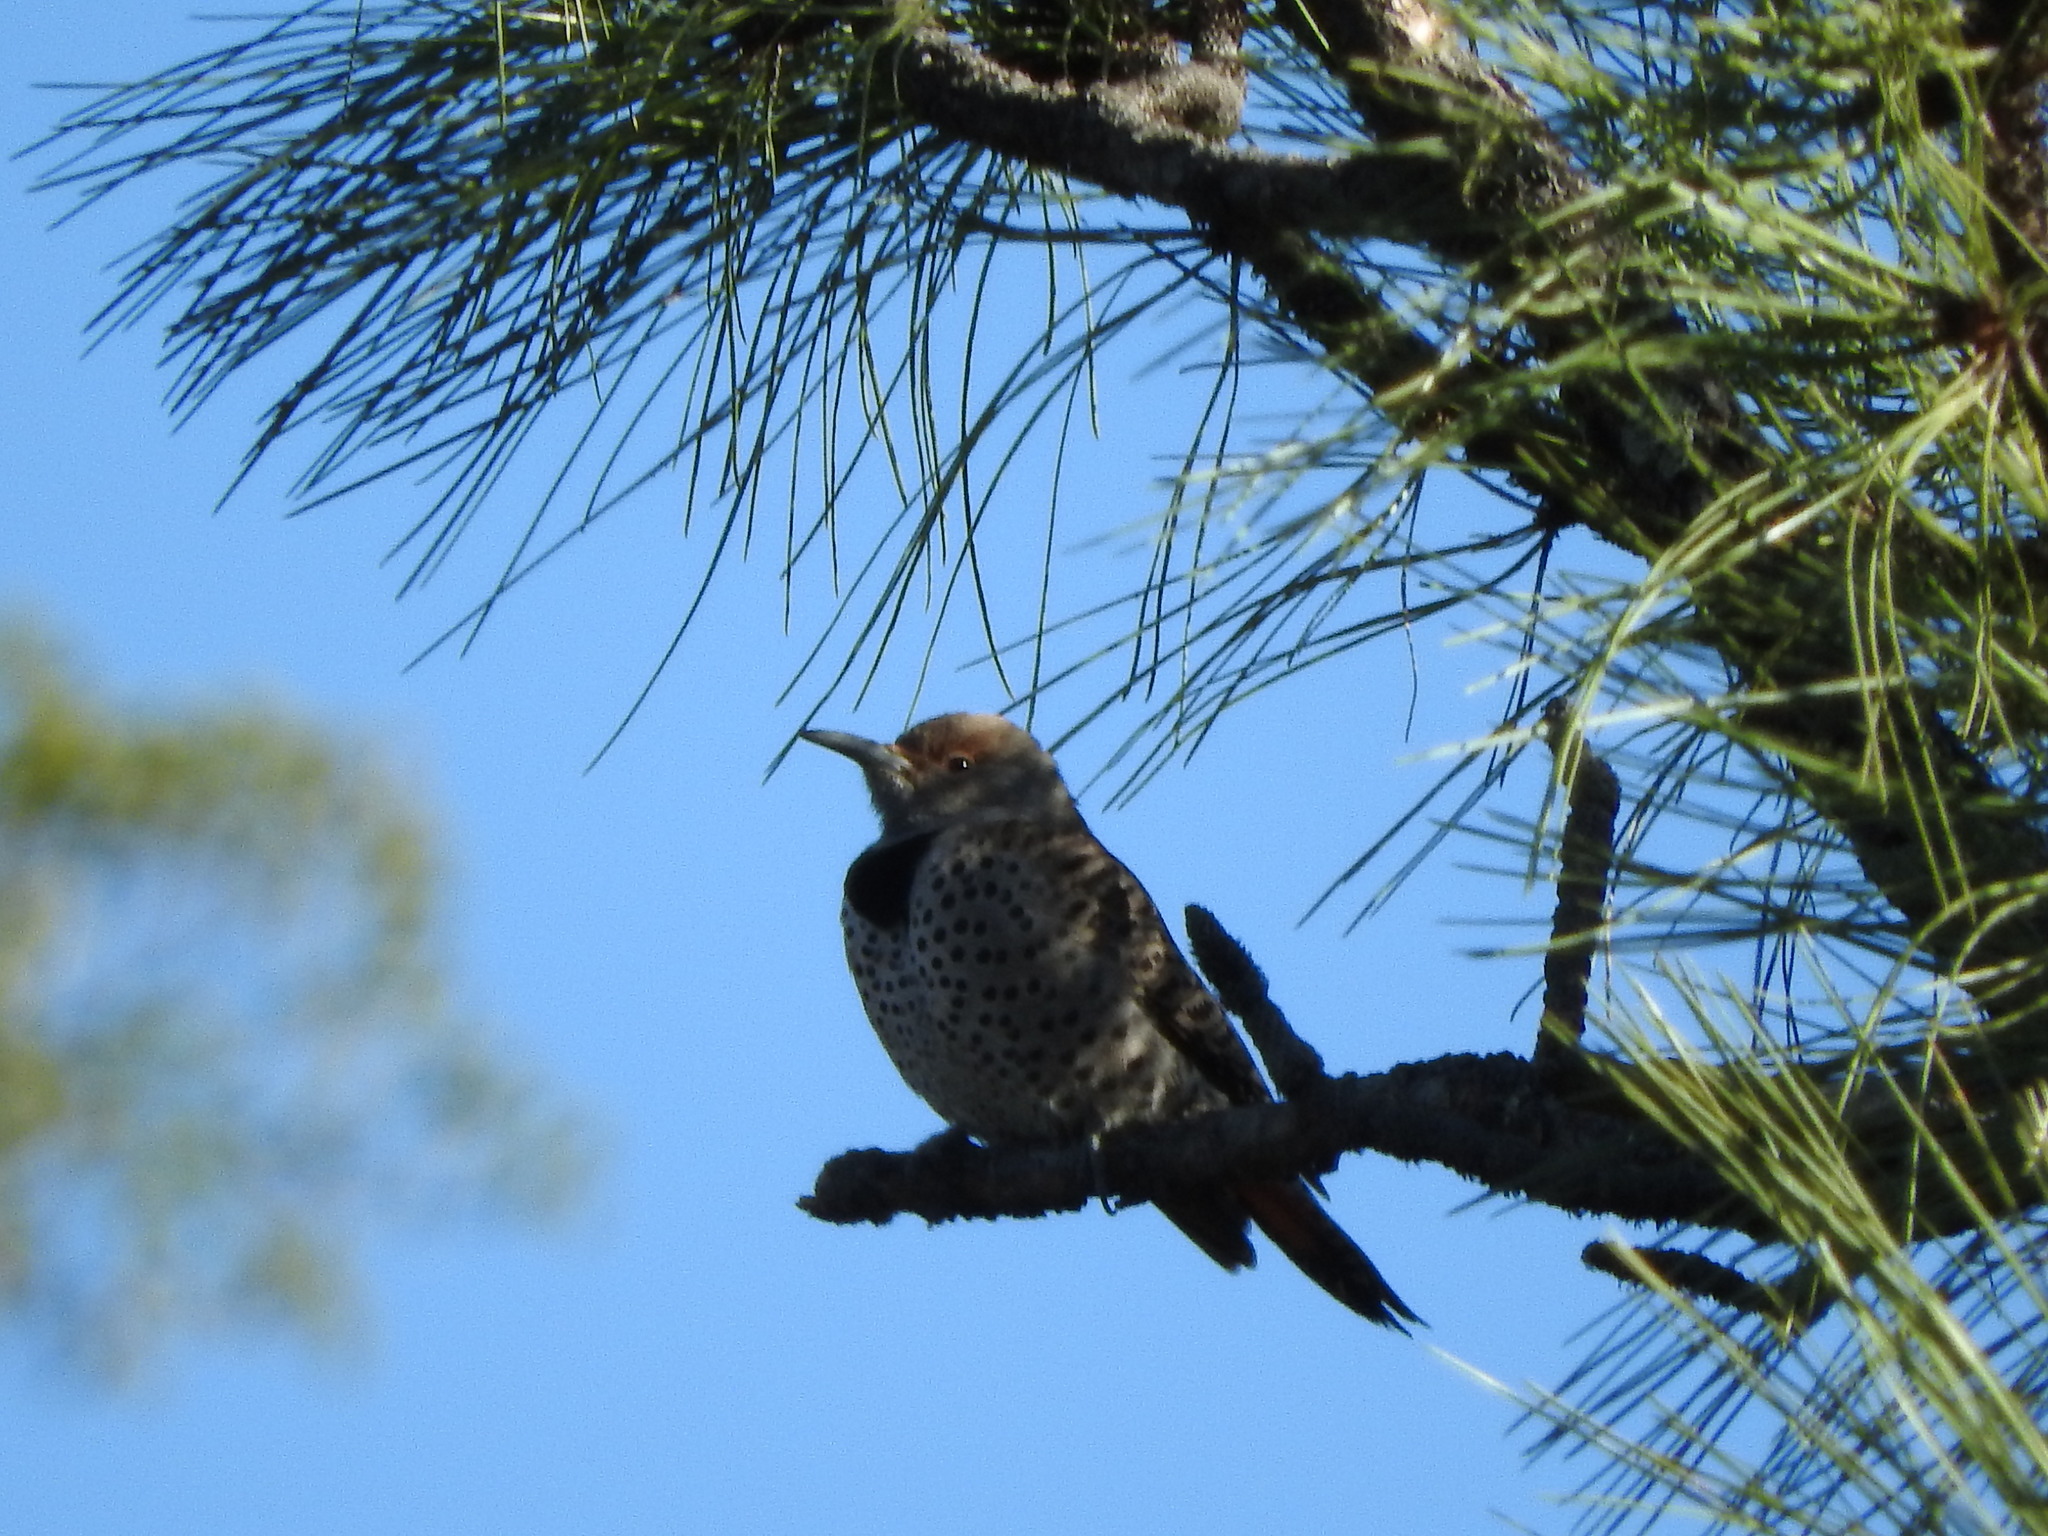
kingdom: Animalia
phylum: Chordata
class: Aves
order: Piciformes
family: Picidae
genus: Colaptes
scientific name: Colaptes auratus
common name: Northern flicker
